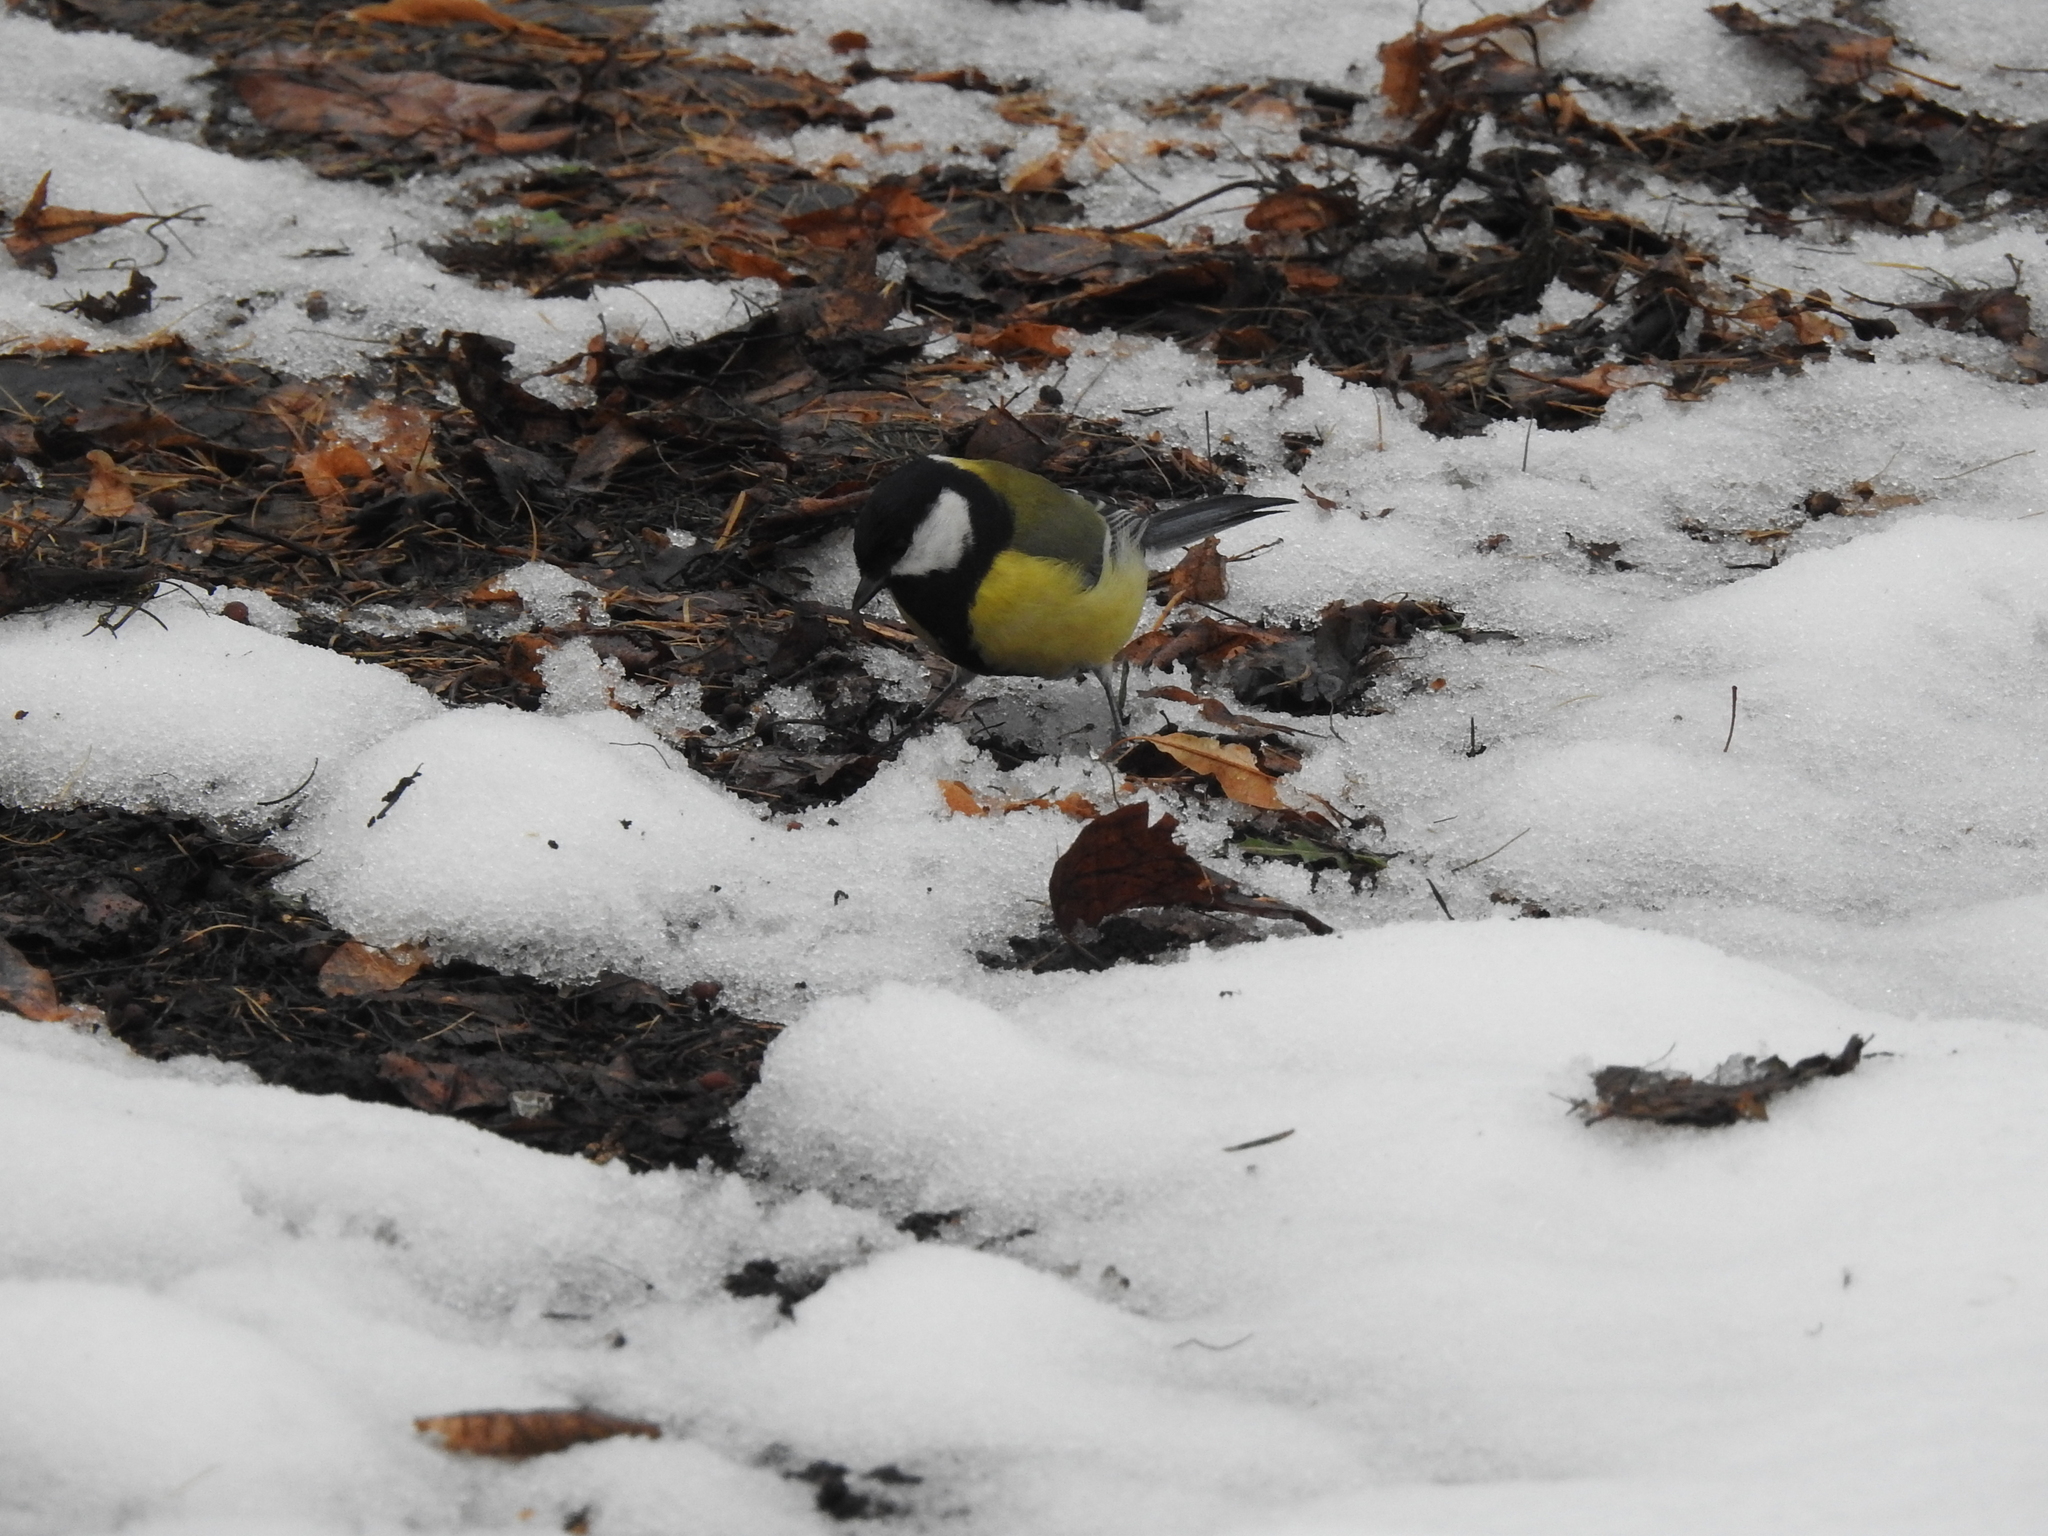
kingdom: Animalia
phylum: Chordata
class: Aves
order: Passeriformes
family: Paridae
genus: Parus
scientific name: Parus major
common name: Great tit
